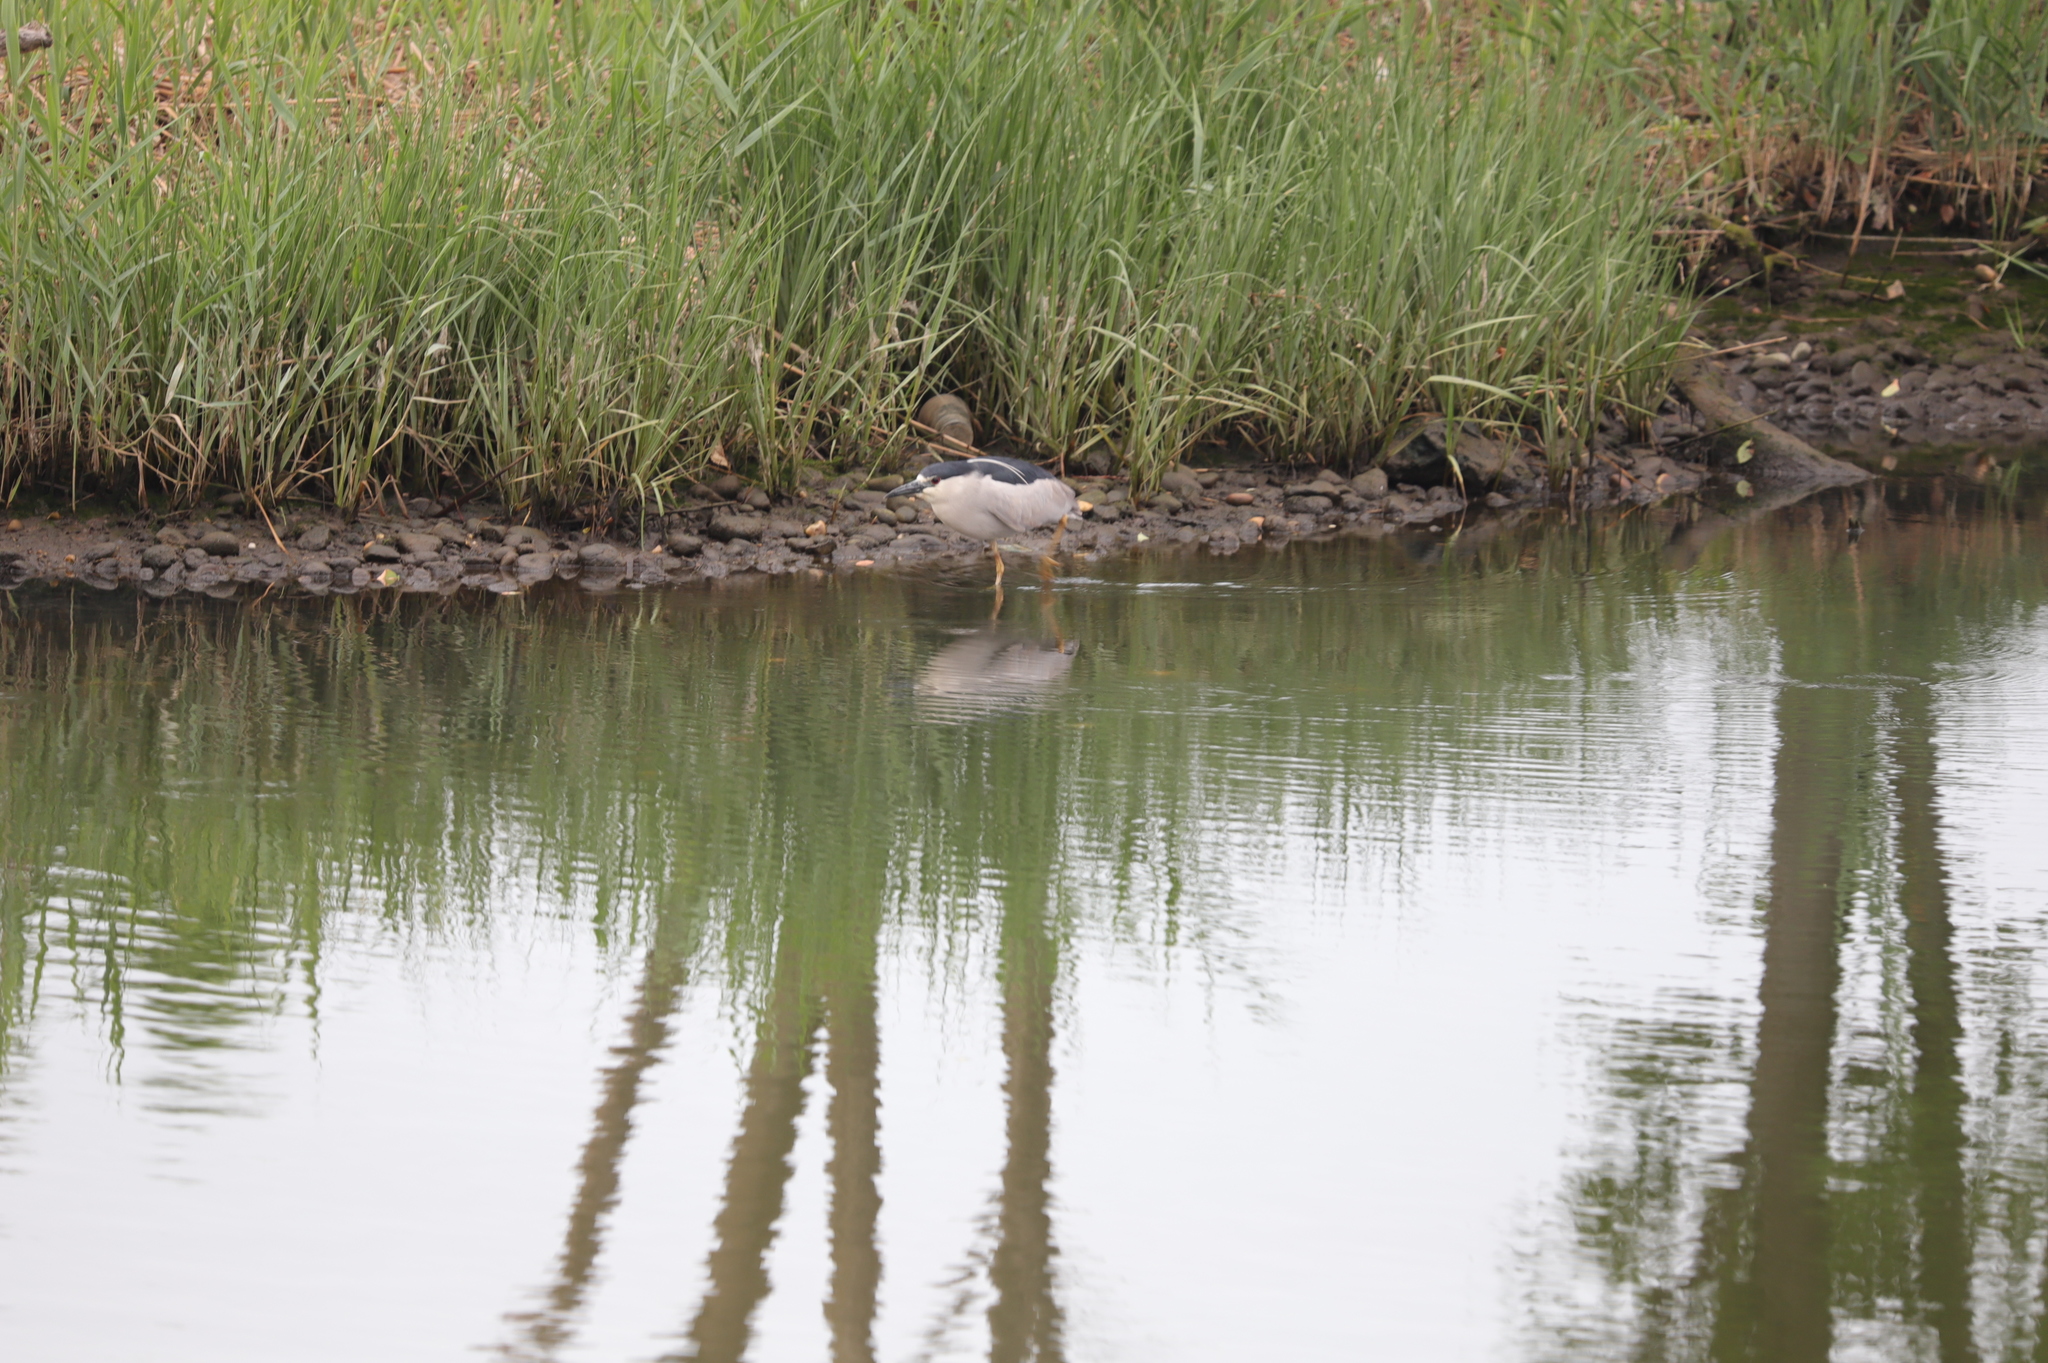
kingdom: Animalia
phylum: Chordata
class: Aves
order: Pelecaniformes
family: Ardeidae
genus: Nycticorax
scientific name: Nycticorax nycticorax
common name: Black-crowned night heron
